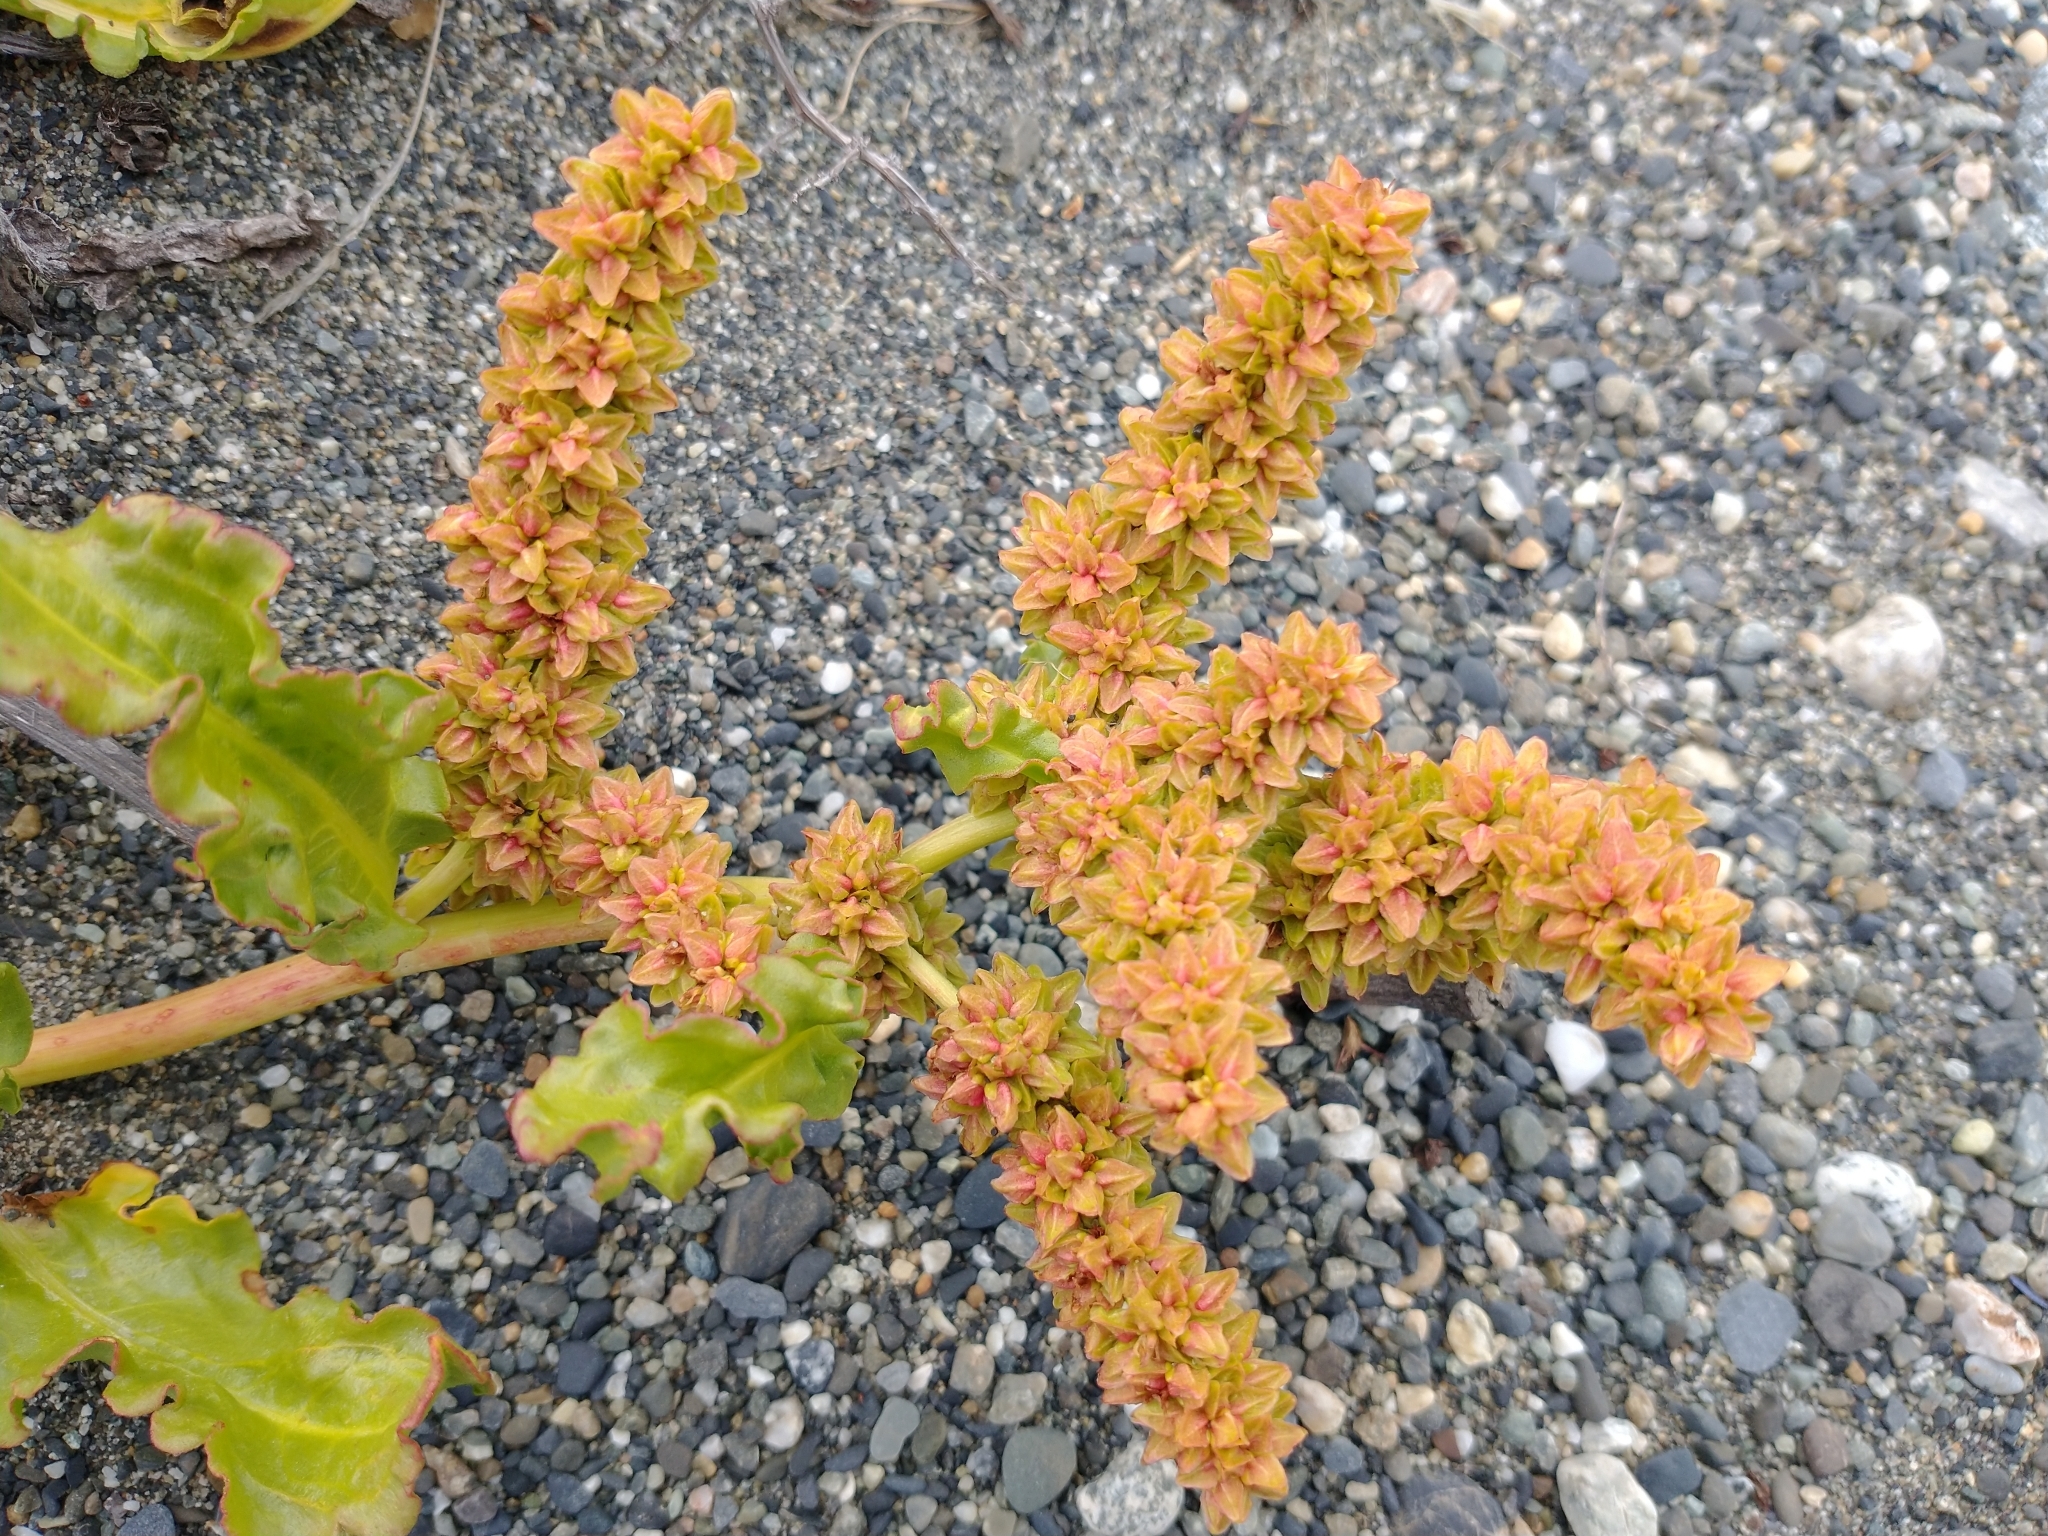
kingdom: Plantae
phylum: Tracheophyta
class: Magnoliopsida
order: Caryophyllales
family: Polygonaceae
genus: Rumex
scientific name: Rumex crispus
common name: Curled dock
